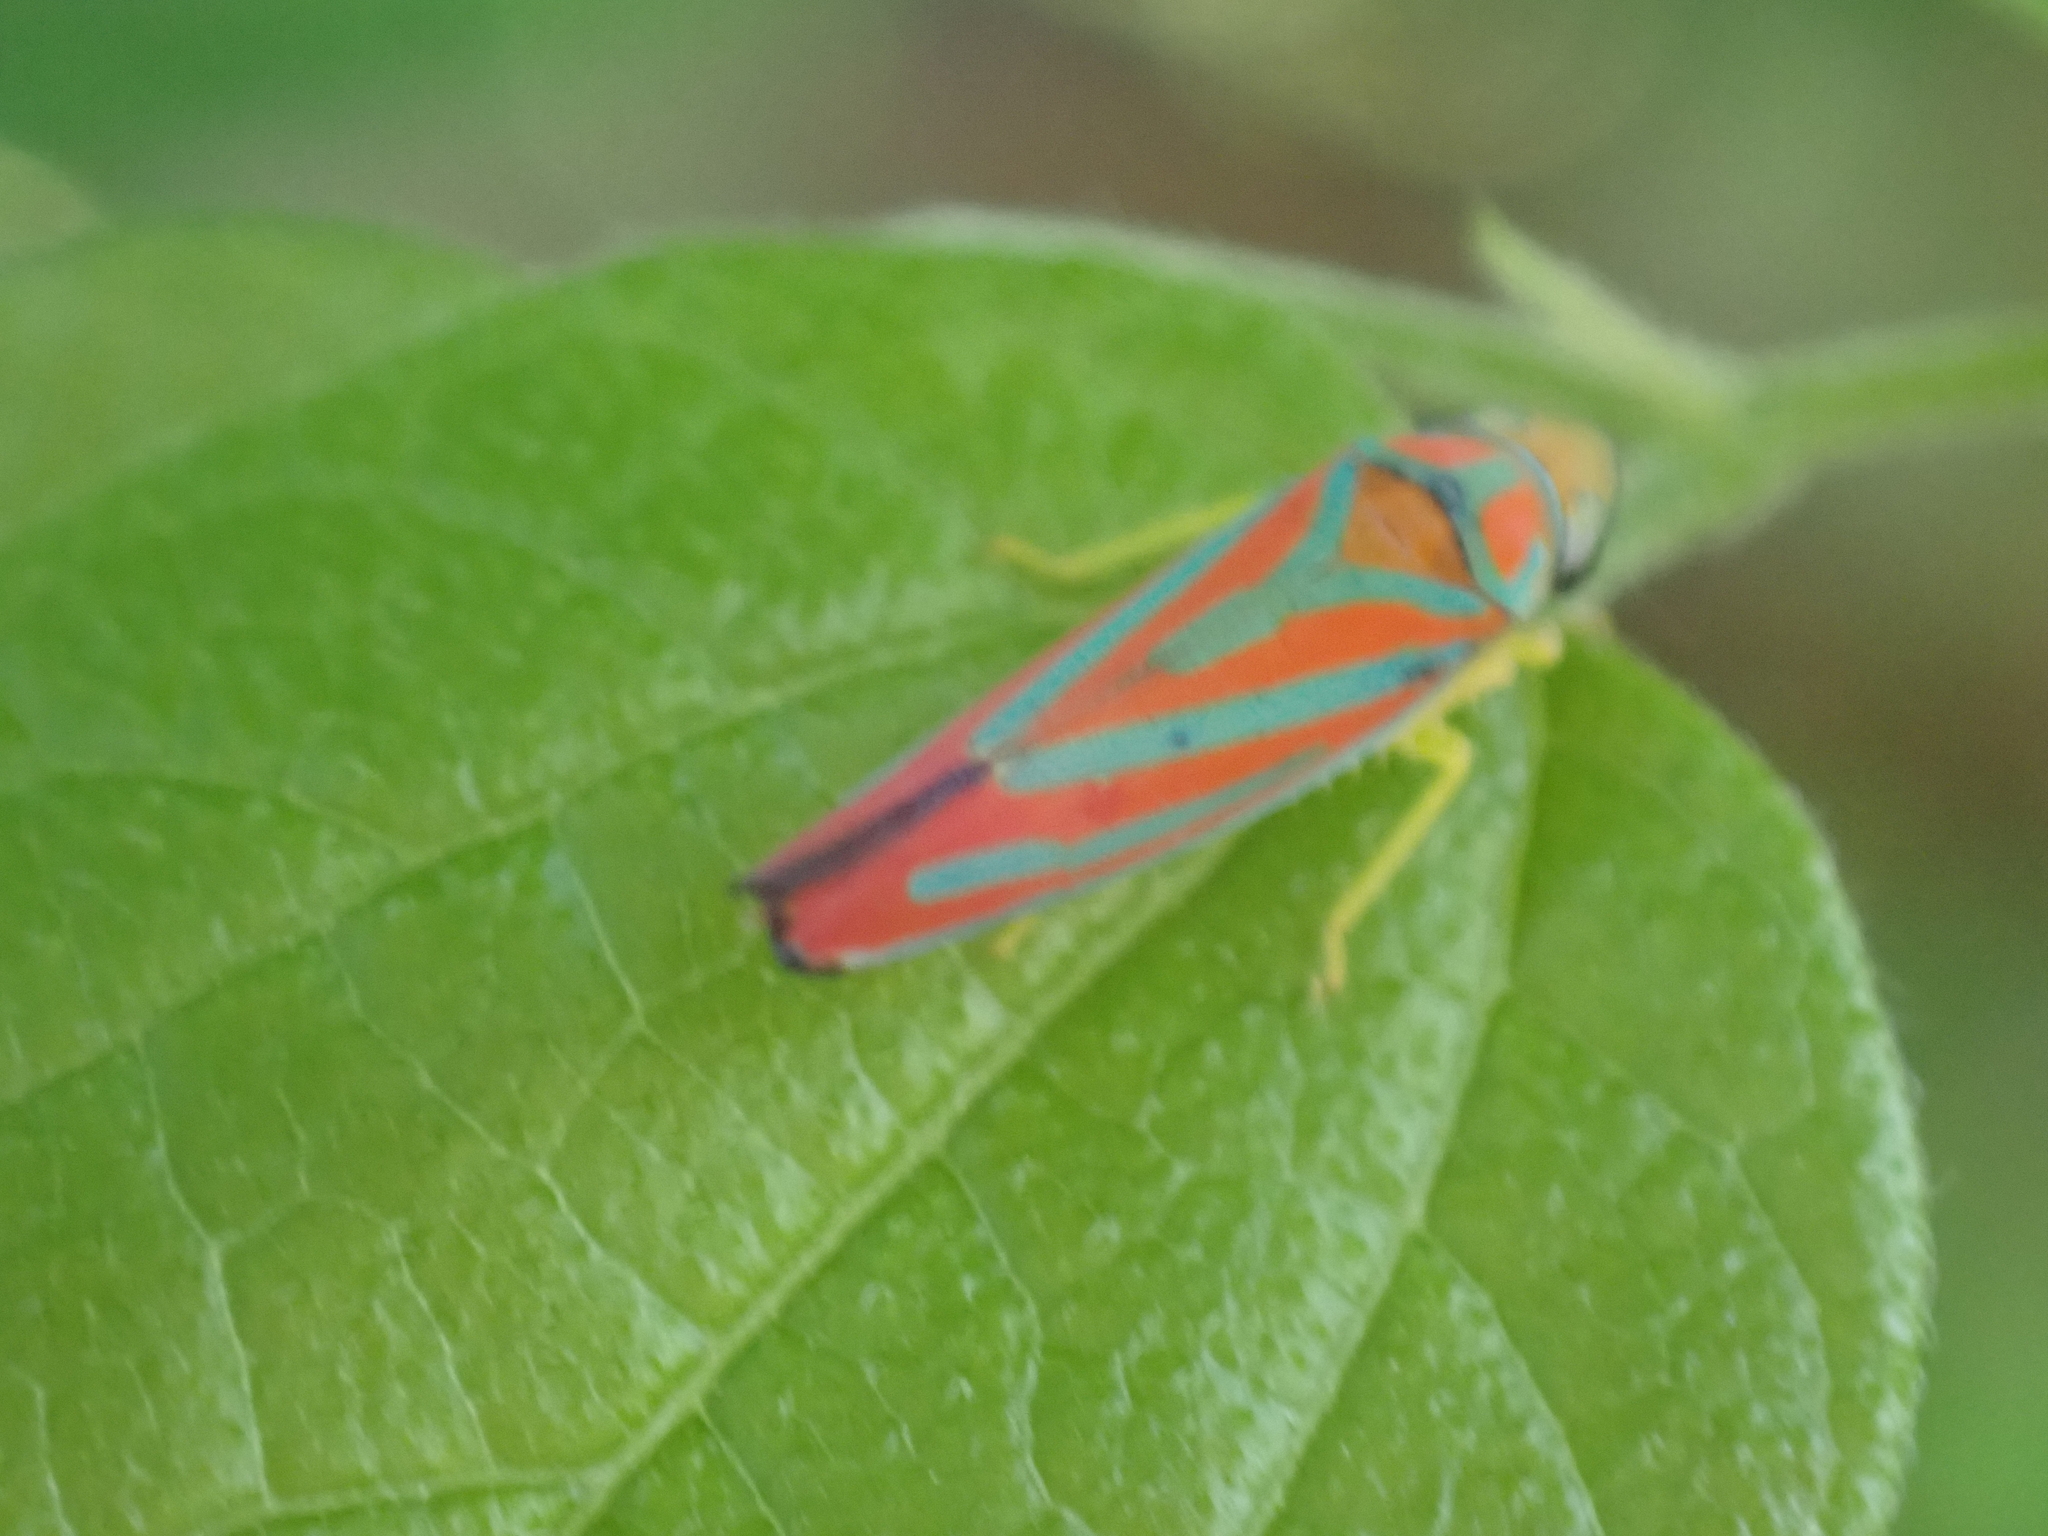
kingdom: Animalia
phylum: Arthropoda
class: Insecta
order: Hemiptera
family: Cicadellidae
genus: Graphocephala
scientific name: Graphocephala coccinea
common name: Candy-striped leafhopper
